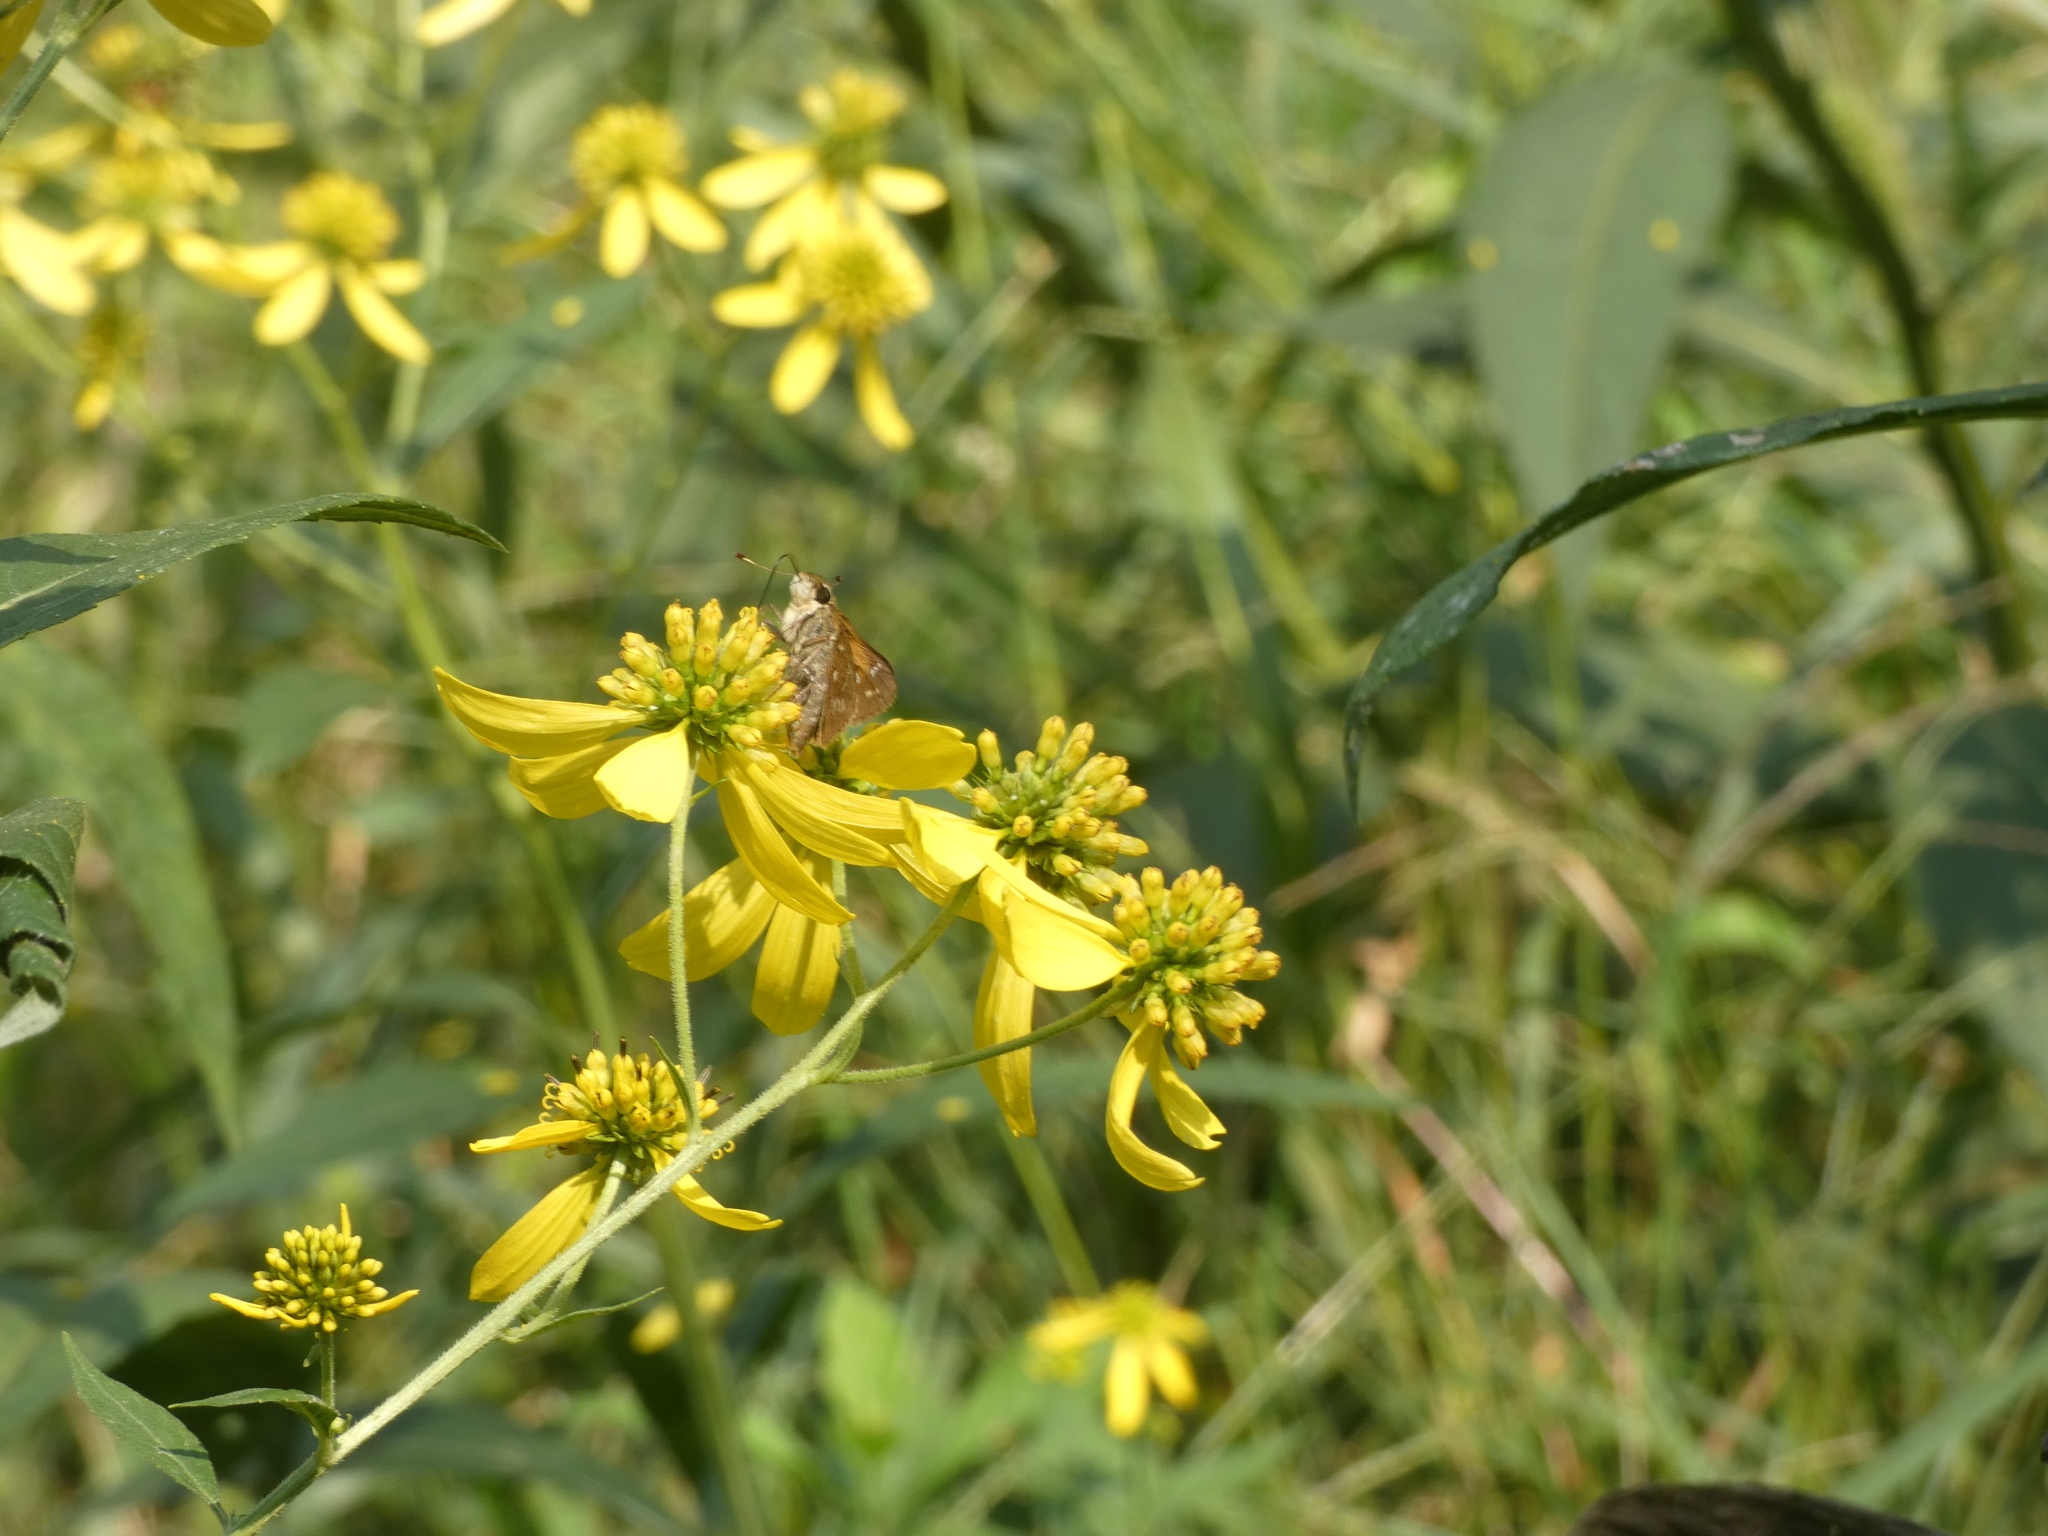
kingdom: Plantae
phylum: Tracheophyta
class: Magnoliopsida
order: Asterales
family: Asteraceae
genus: Verbesina
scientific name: Verbesina alternifolia
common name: Wingstem
